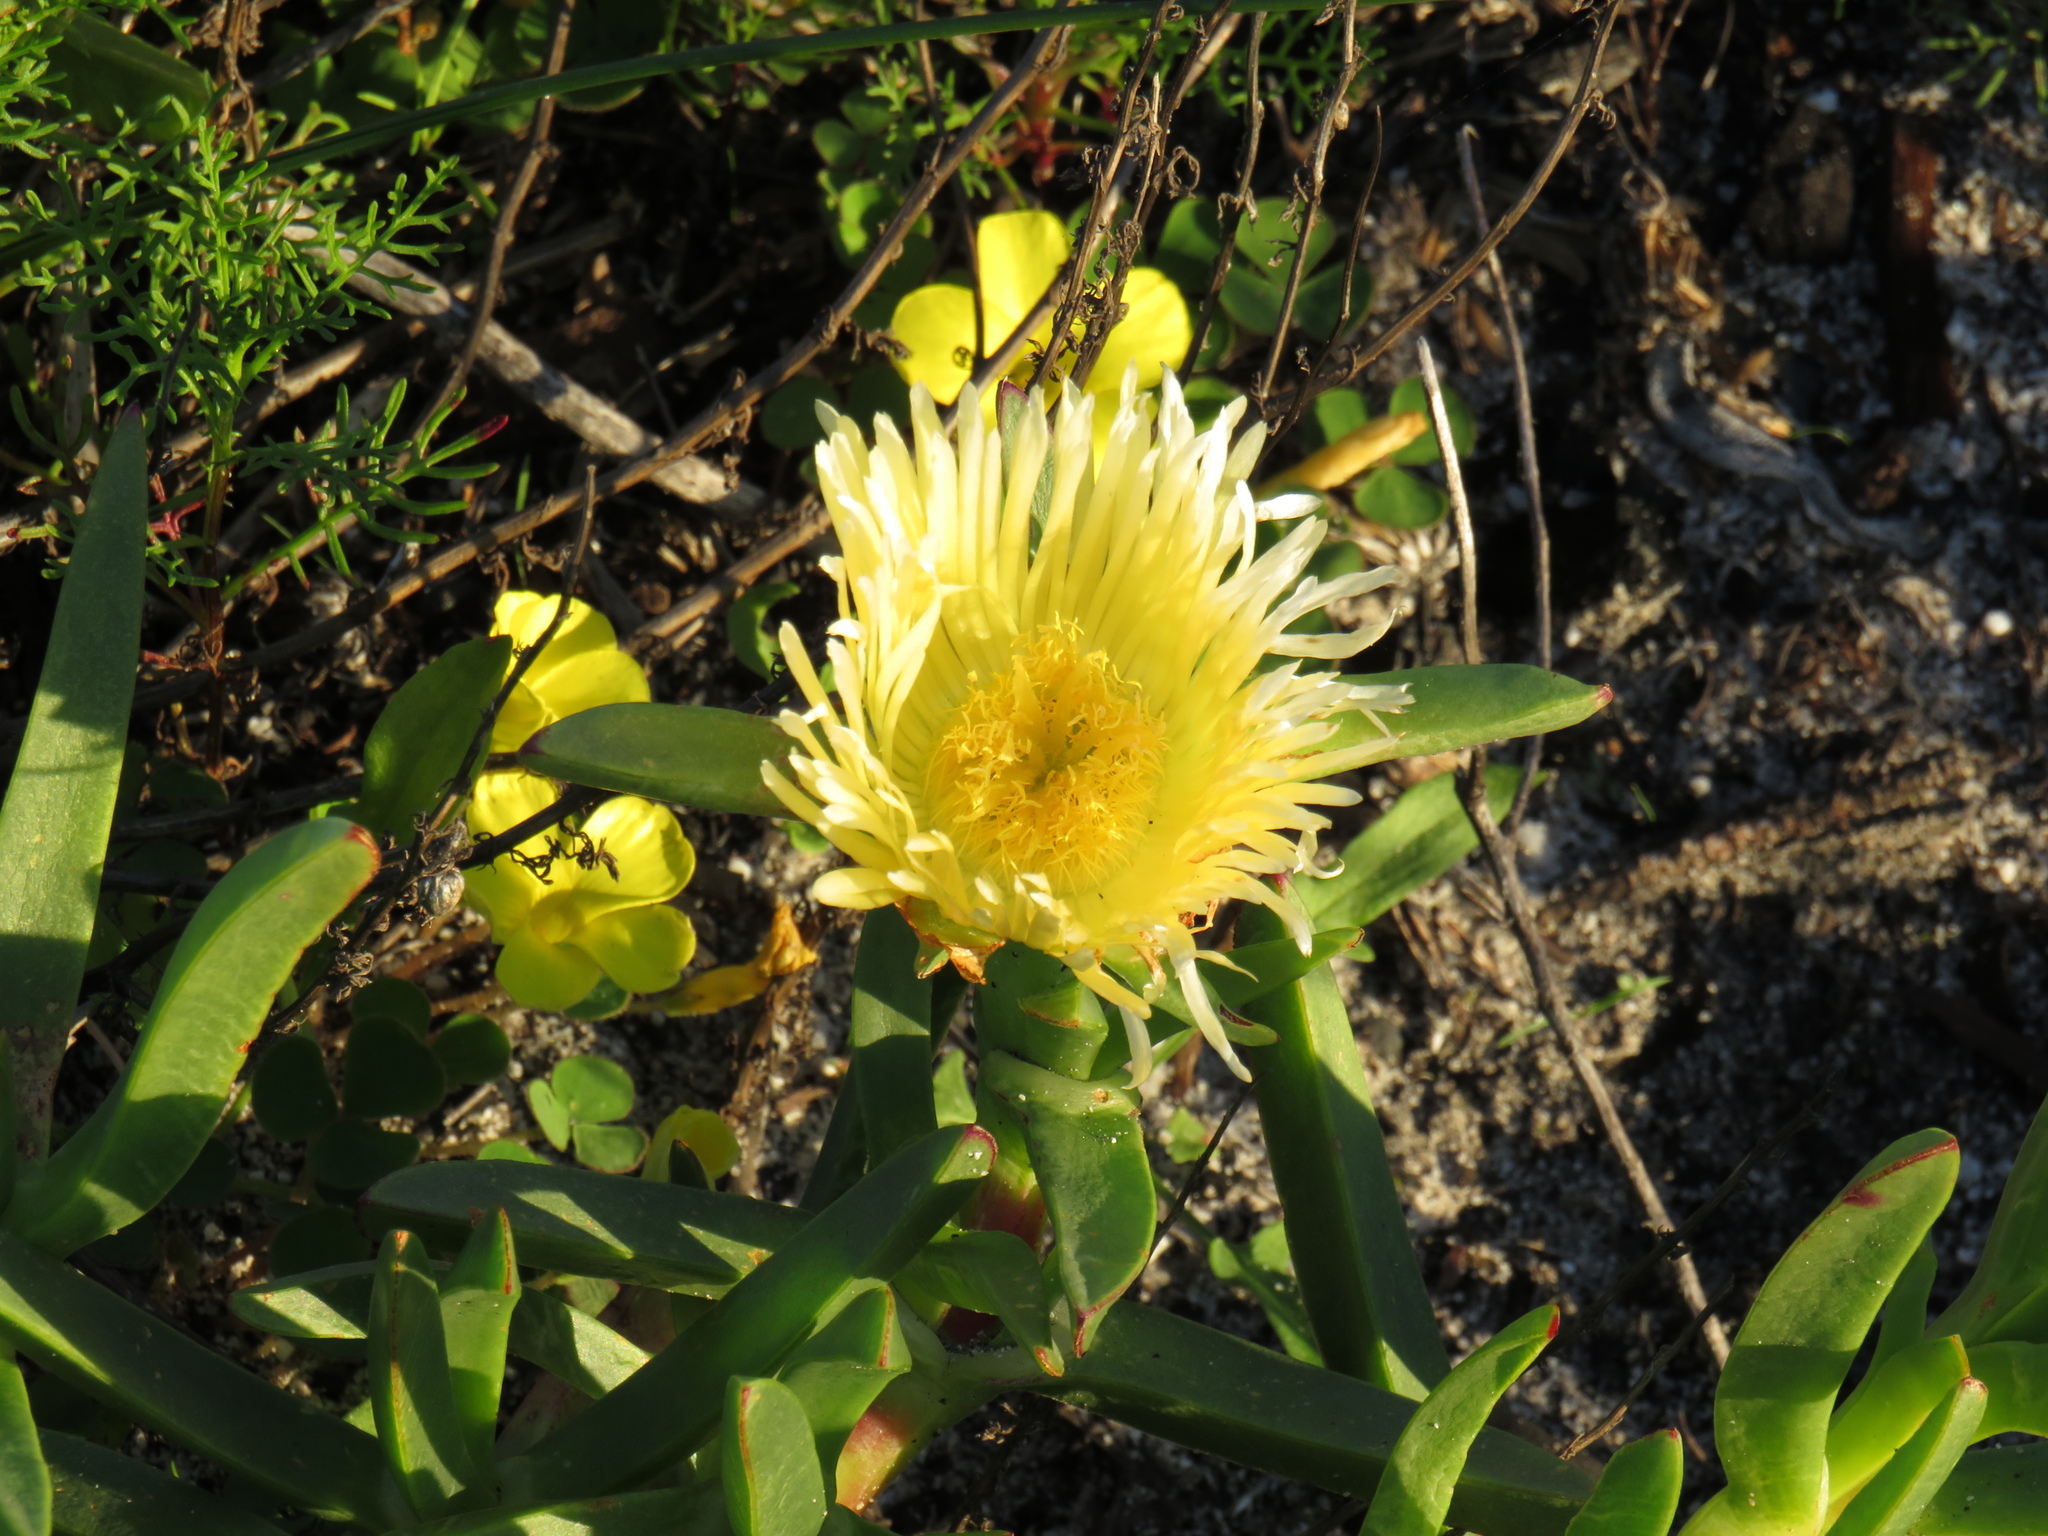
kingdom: Plantae
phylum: Tracheophyta
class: Magnoliopsida
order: Caryophyllales
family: Aizoaceae
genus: Carpobrotus
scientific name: Carpobrotus edulis
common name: Hottentot-fig
